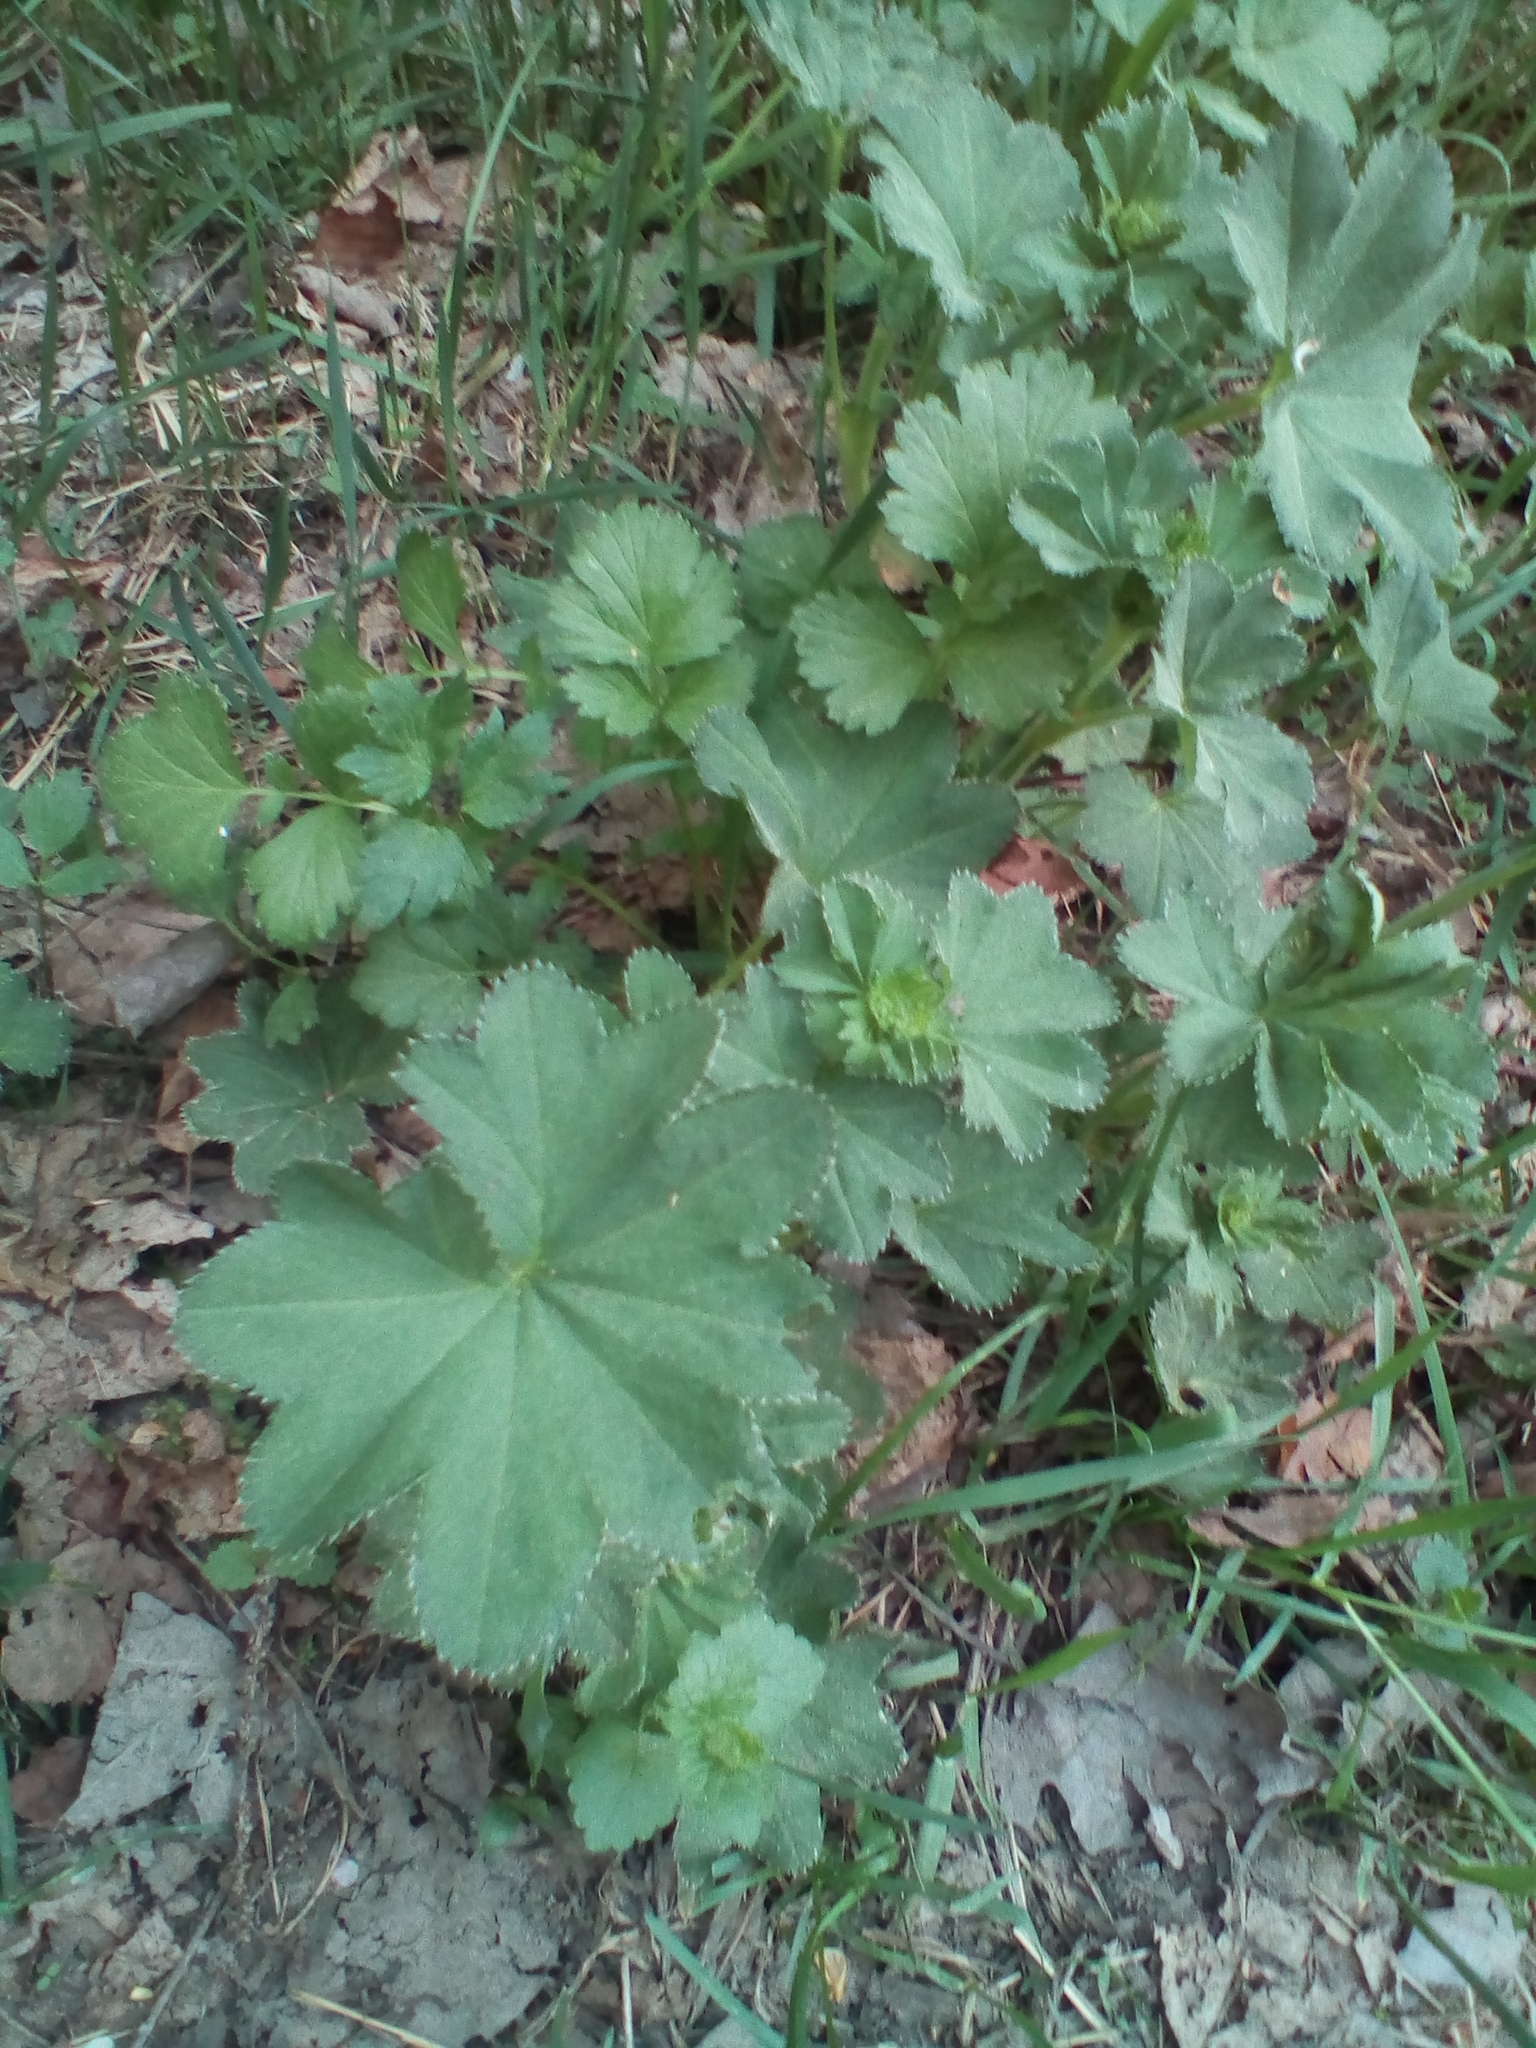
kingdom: Plantae
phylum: Tracheophyta
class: Magnoliopsida
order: Rosales
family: Rosaceae
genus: Alchemilla
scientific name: Alchemilla
